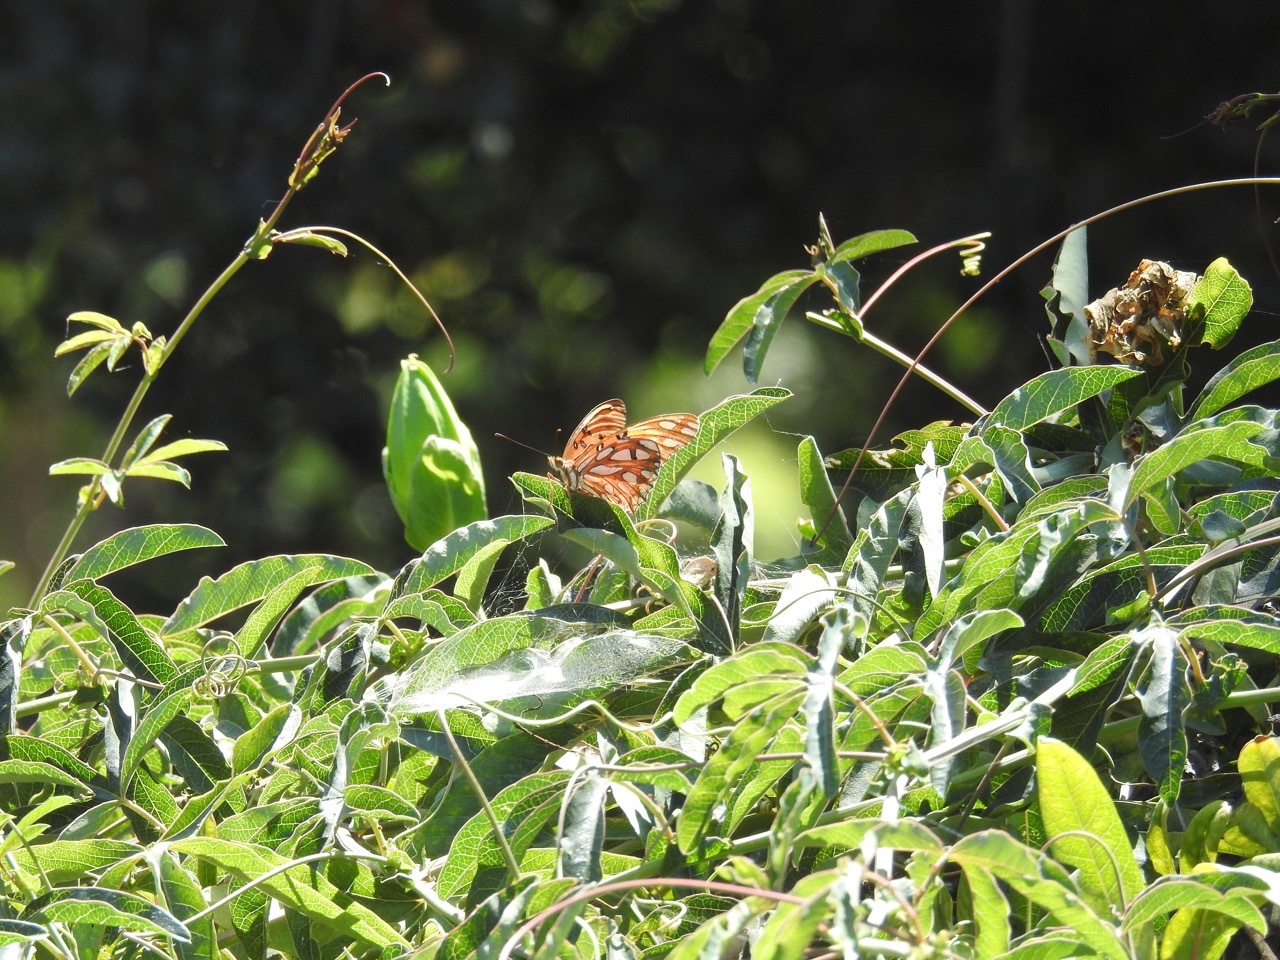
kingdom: Animalia
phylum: Arthropoda
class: Insecta
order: Lepidoptera
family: Nymphalidae
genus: Dione
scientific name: Dione vanillae
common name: Gulf fritillary
